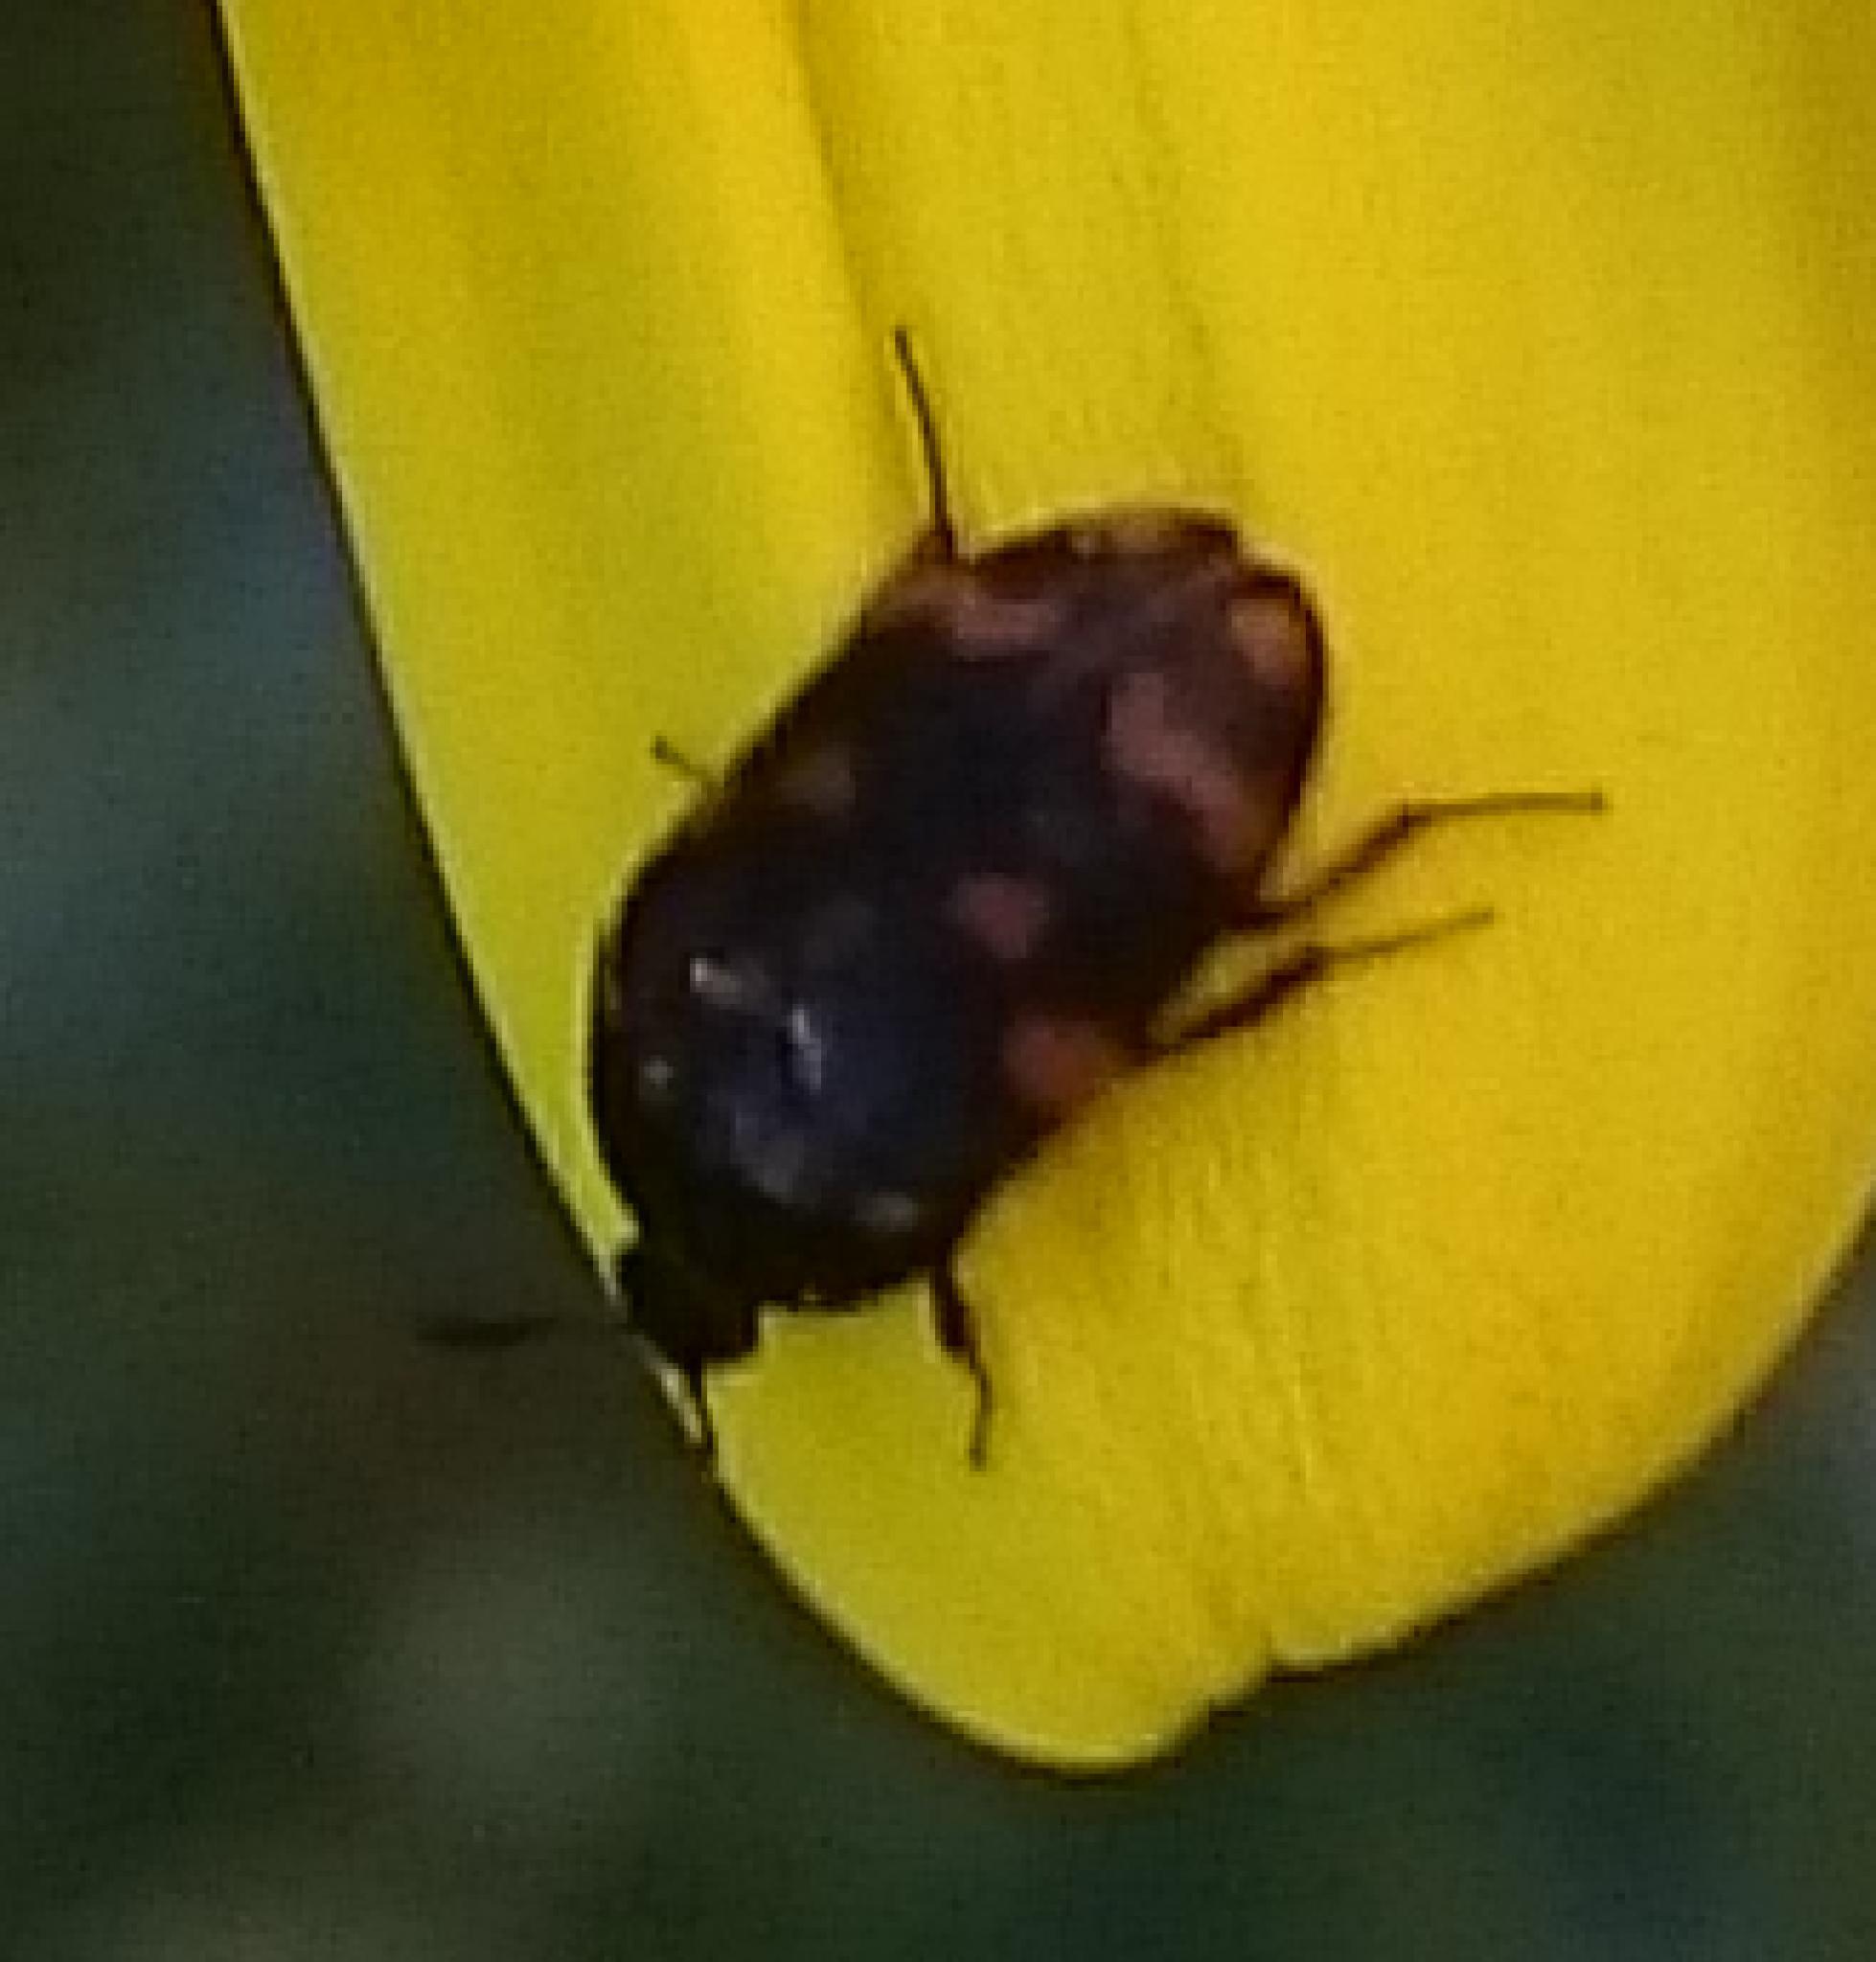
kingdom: Animalia
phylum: Arthropoda
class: Insecta
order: Coleoptera
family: Dermestidae
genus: Attagenus
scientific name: Attagenus
